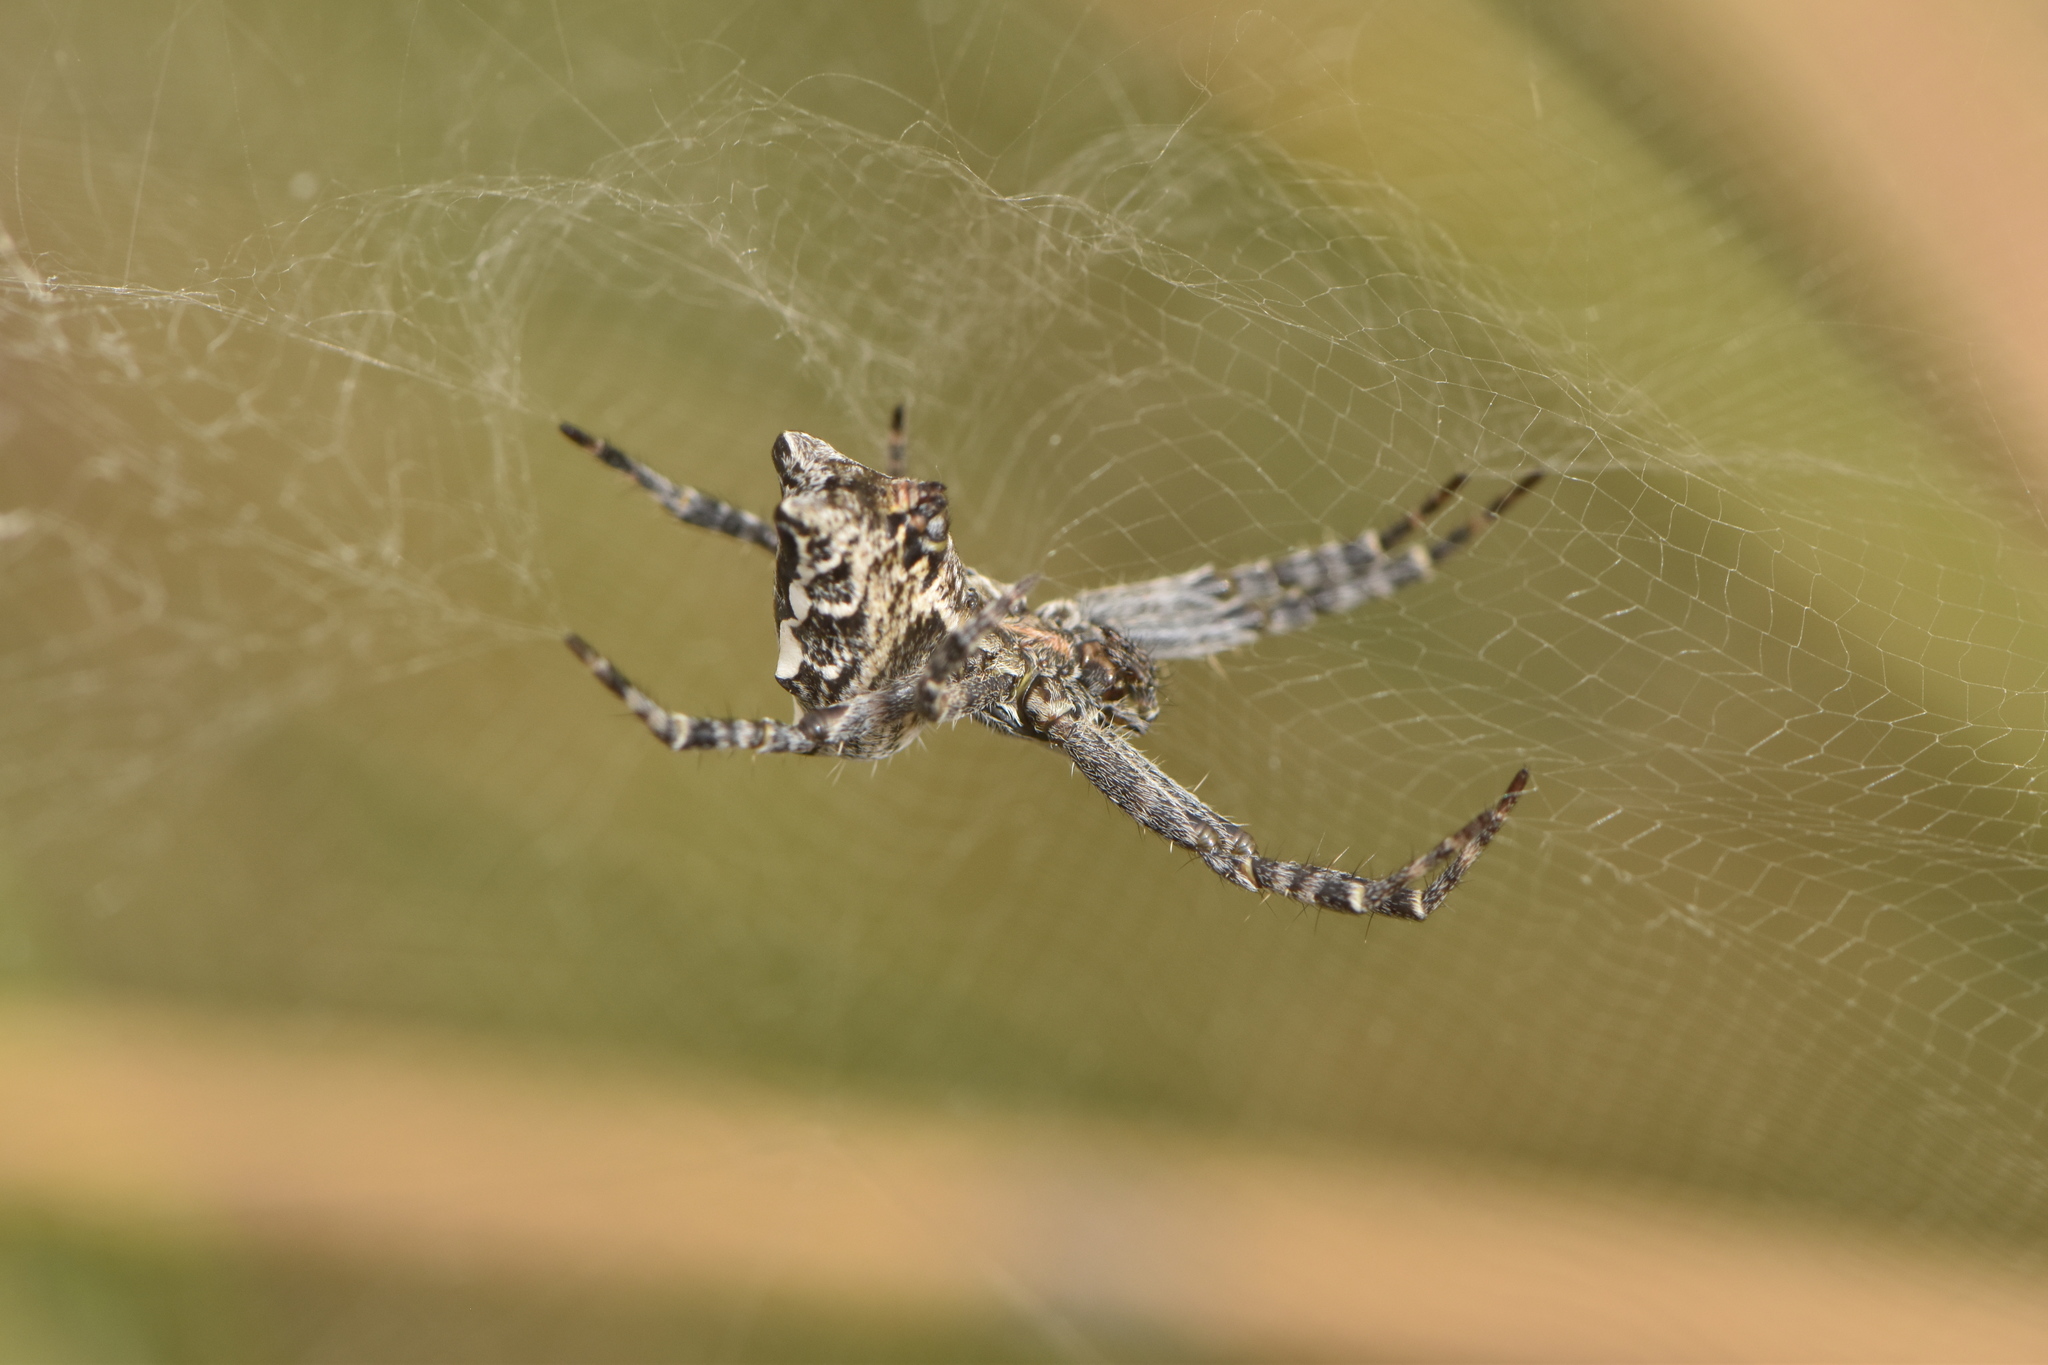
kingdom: Animalia
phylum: Arthropoda
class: Arachnida
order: Araneae
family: Araneidae
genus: Cyrtophora
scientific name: Cyrtophora citricola
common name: Orb weavers
